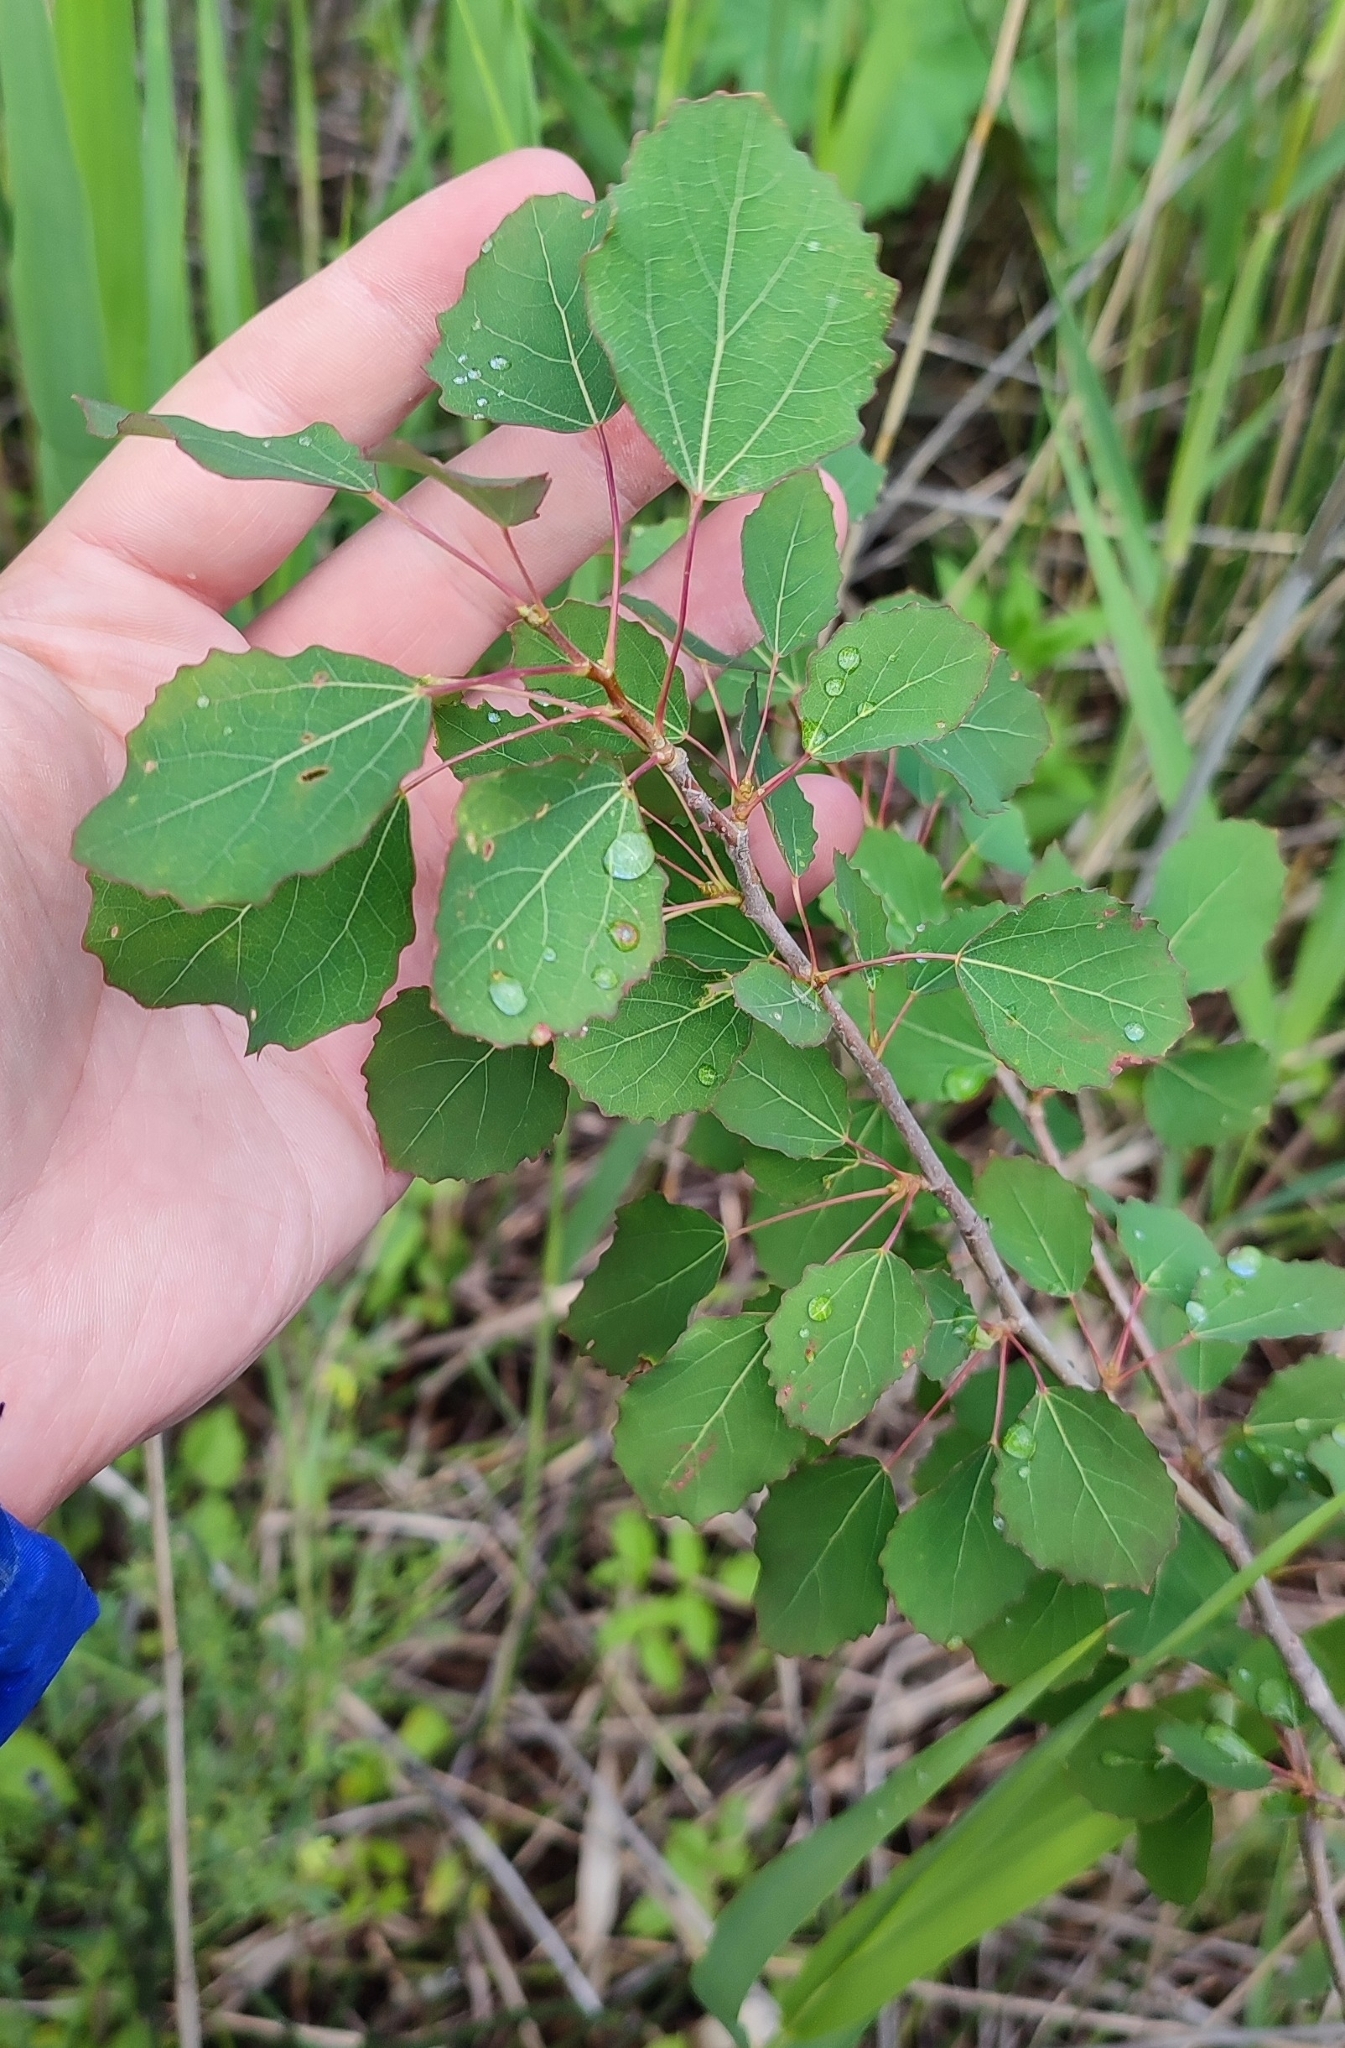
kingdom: Plantae
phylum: Tracheophyta
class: Magnoliopsida
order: Malpighiales
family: Salicaceae
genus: Populus
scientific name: Populus tremula
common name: European aspen
